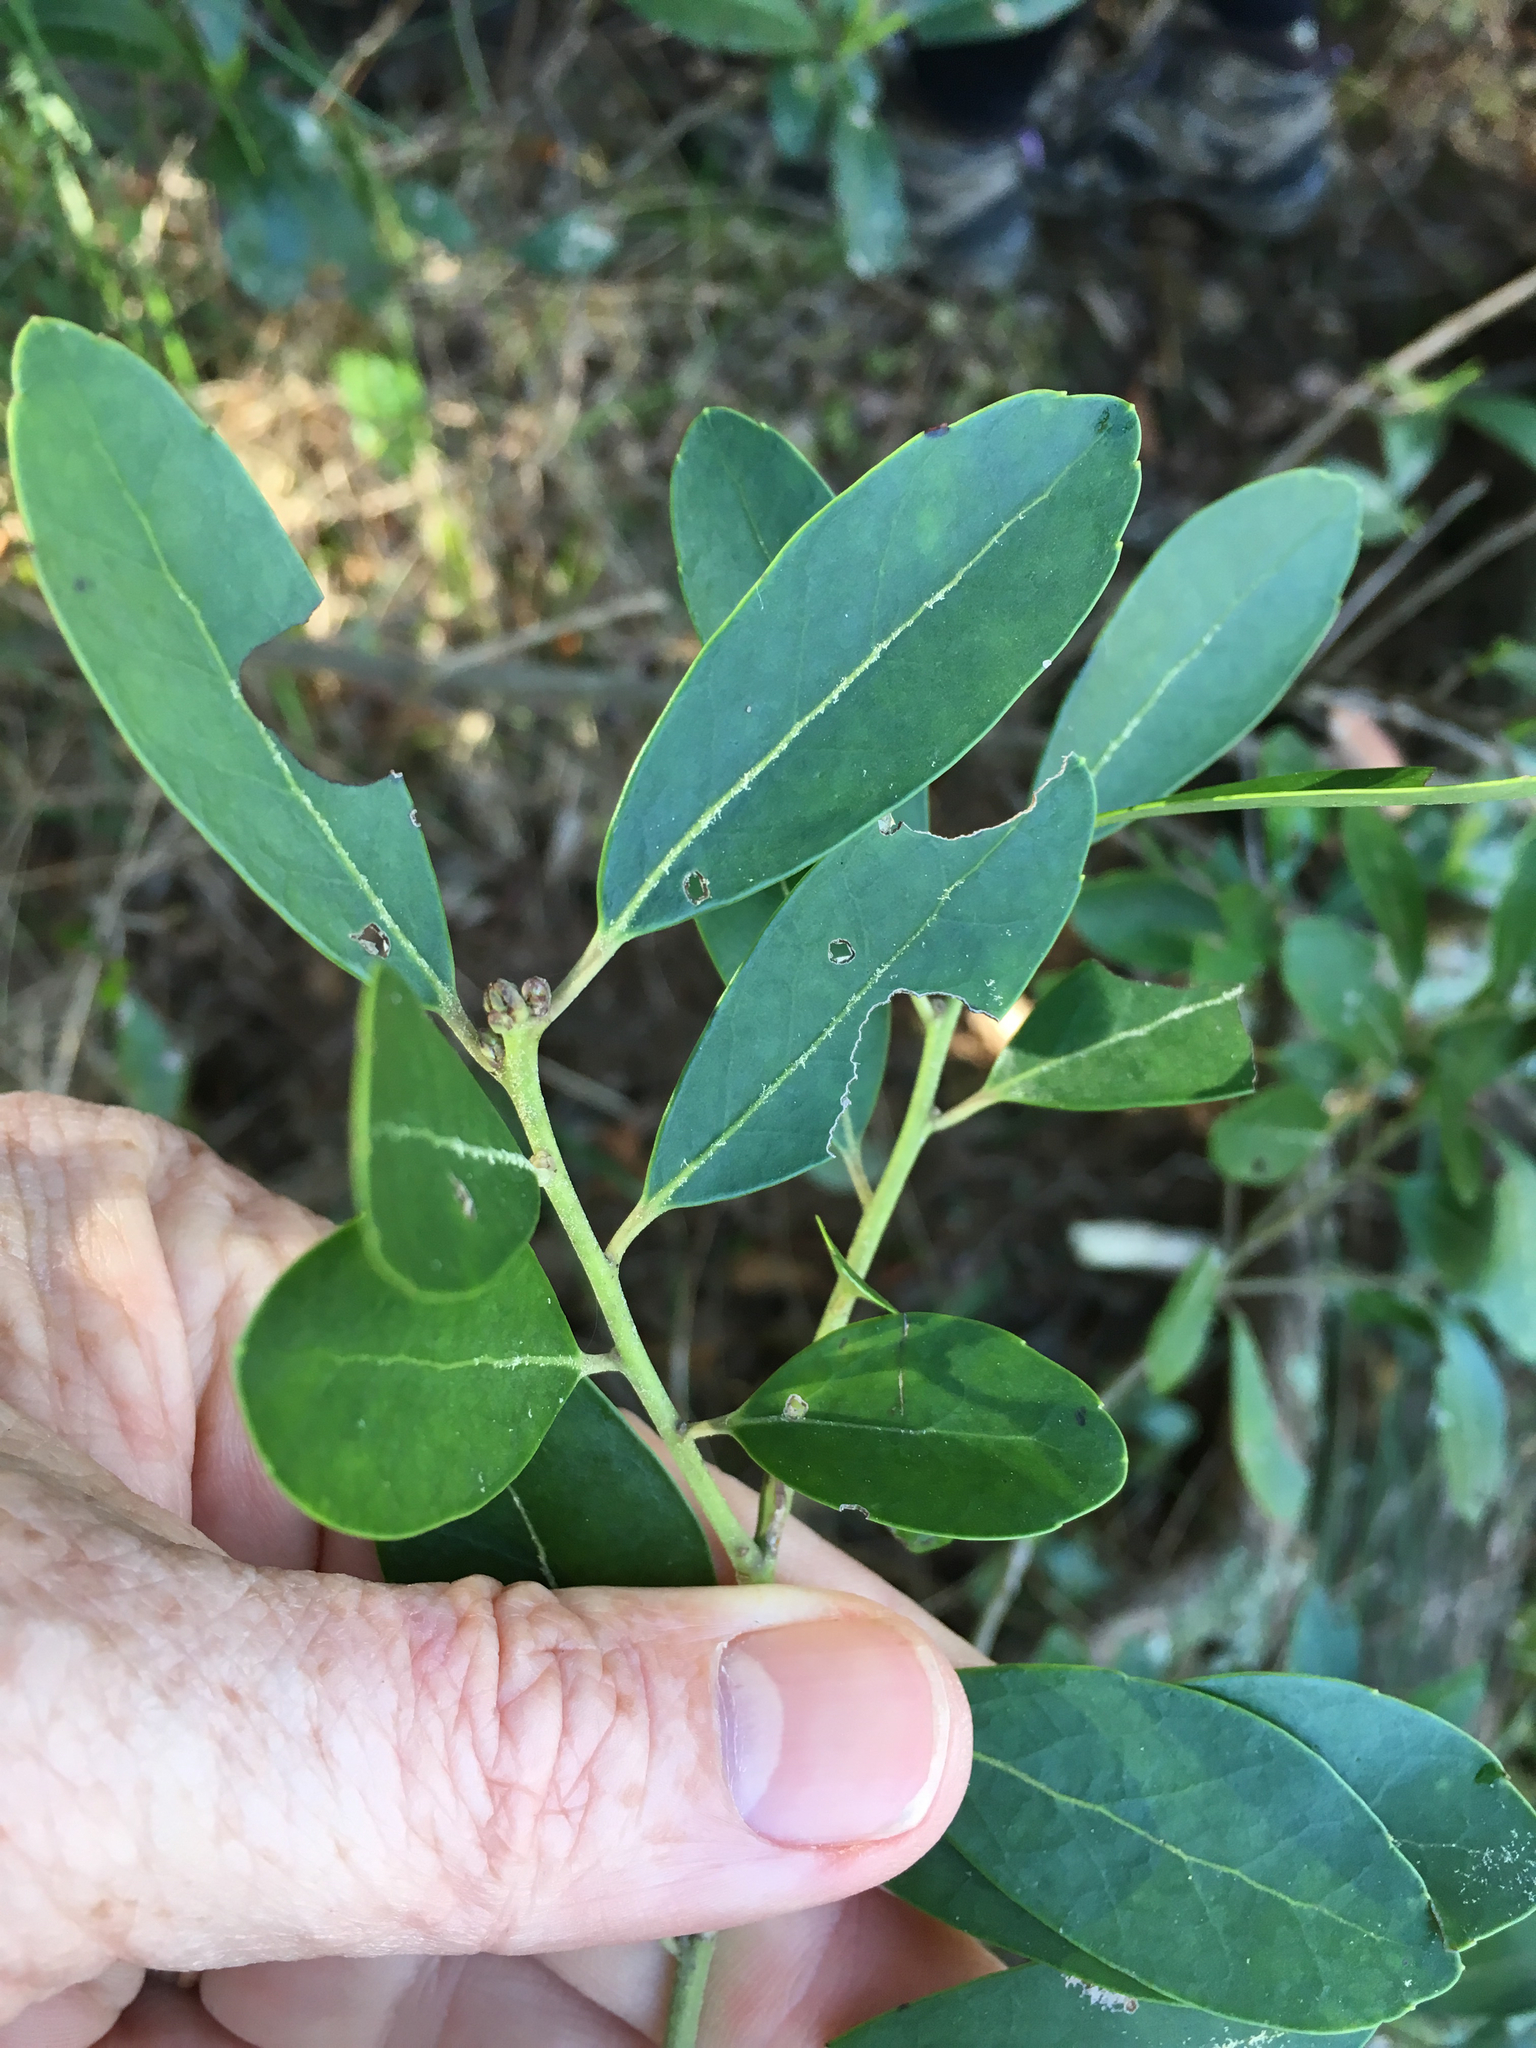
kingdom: Plantae
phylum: Tracheophyta
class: Magnoliopsida
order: Aquifoliales
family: Aquifoliaceae
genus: Ilex
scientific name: Ilex glabra
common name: Bitter gallberry
